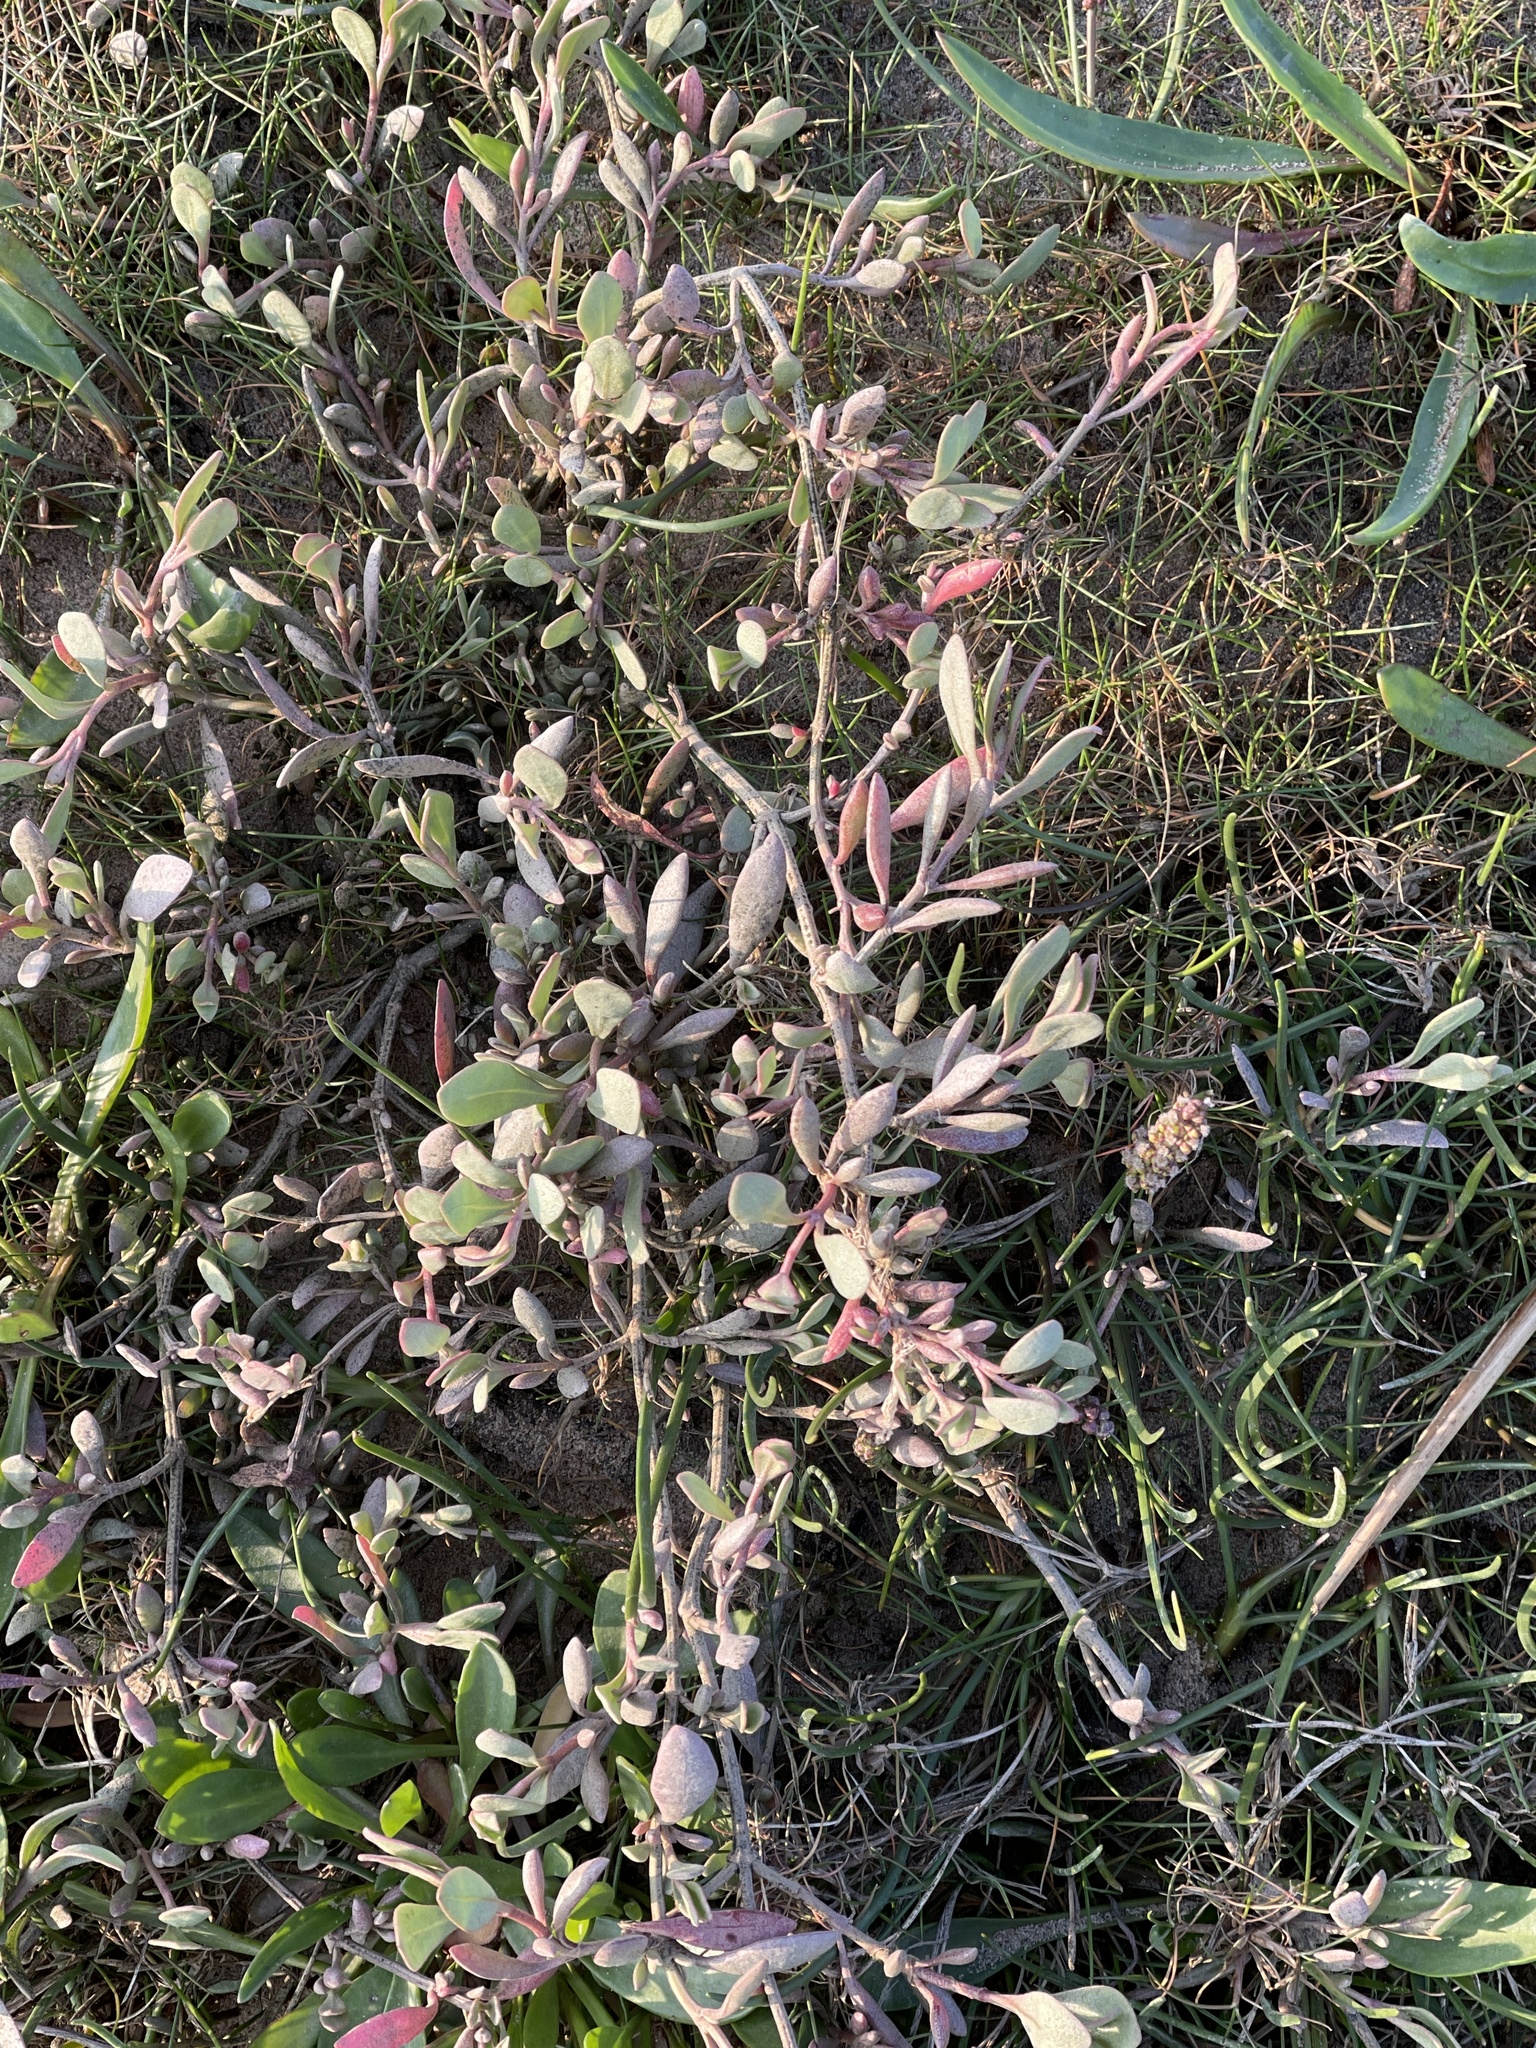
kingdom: Plantae
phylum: Tracheophyta
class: Magnoliopsida
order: Caryophyllales
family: Amaranthaceae
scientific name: Amaranthaceae
